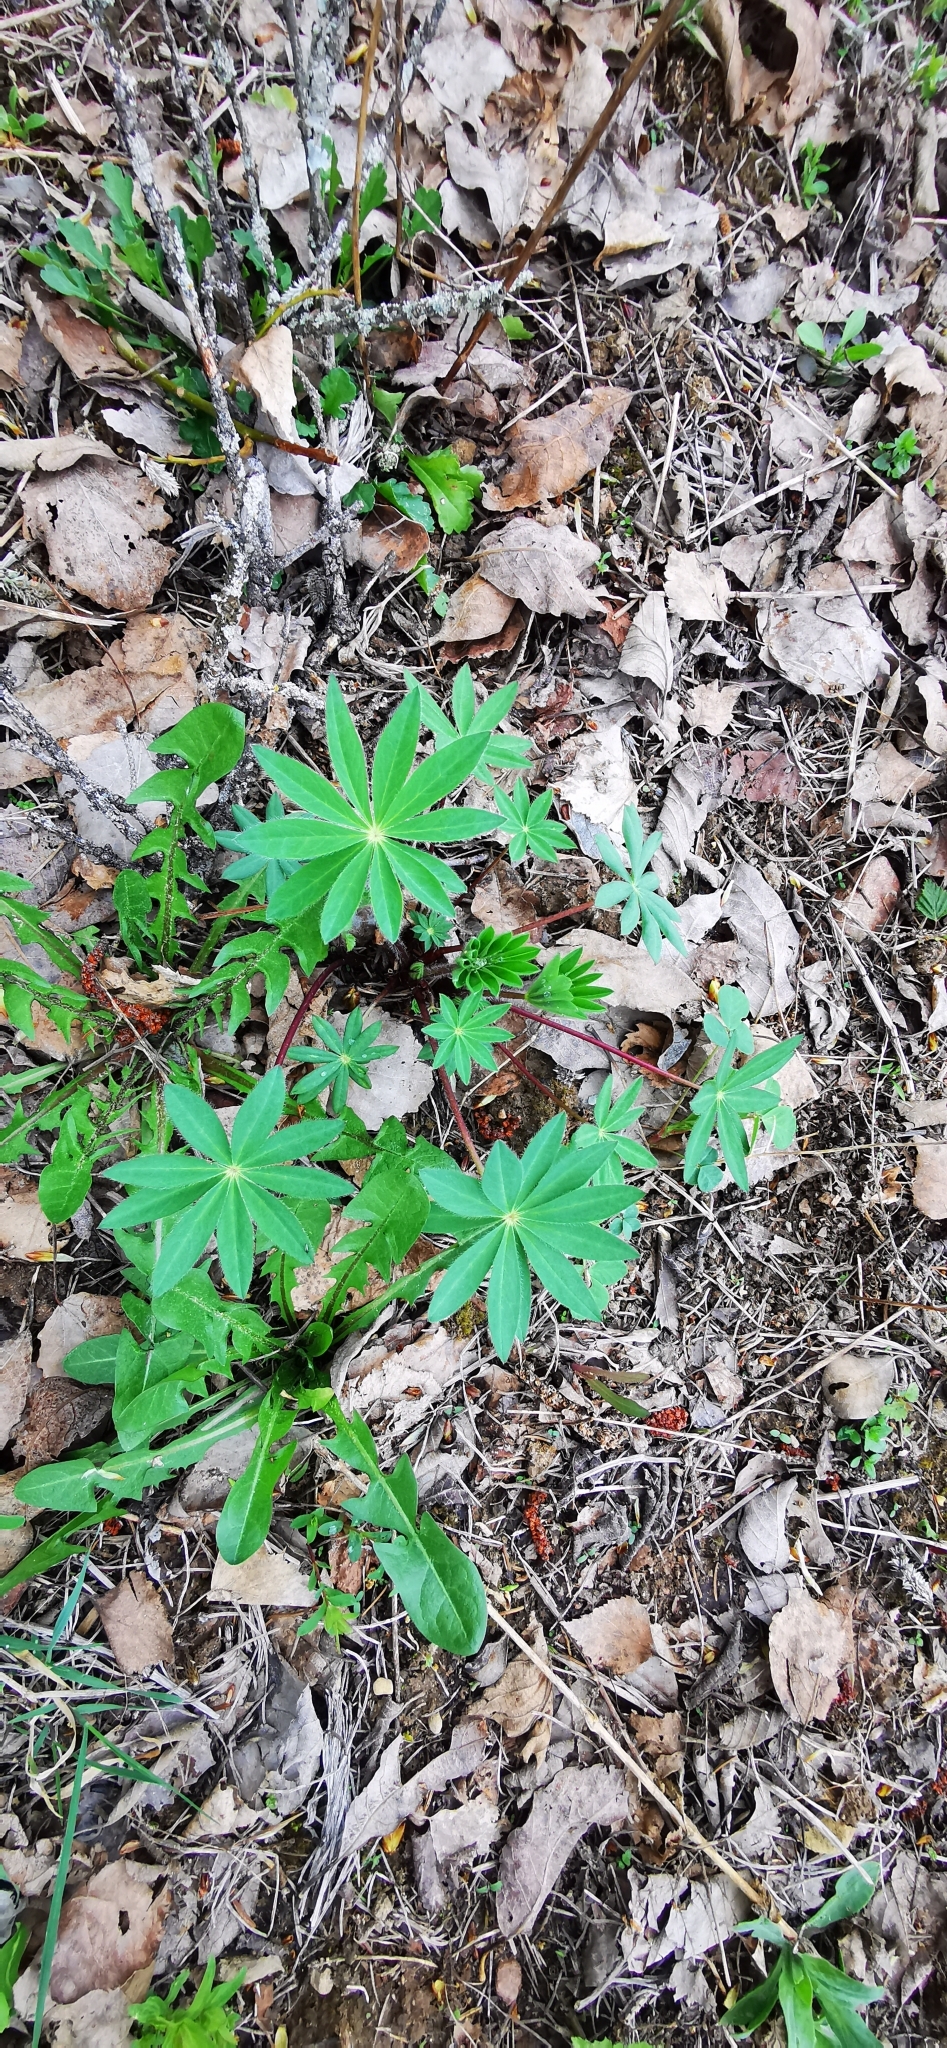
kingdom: Plantae
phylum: Tracheophyta
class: Magnoliopsida
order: Fabales
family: Fabaceae
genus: Lupinus
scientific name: Lupinus polyphyllus
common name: Garden lupin
